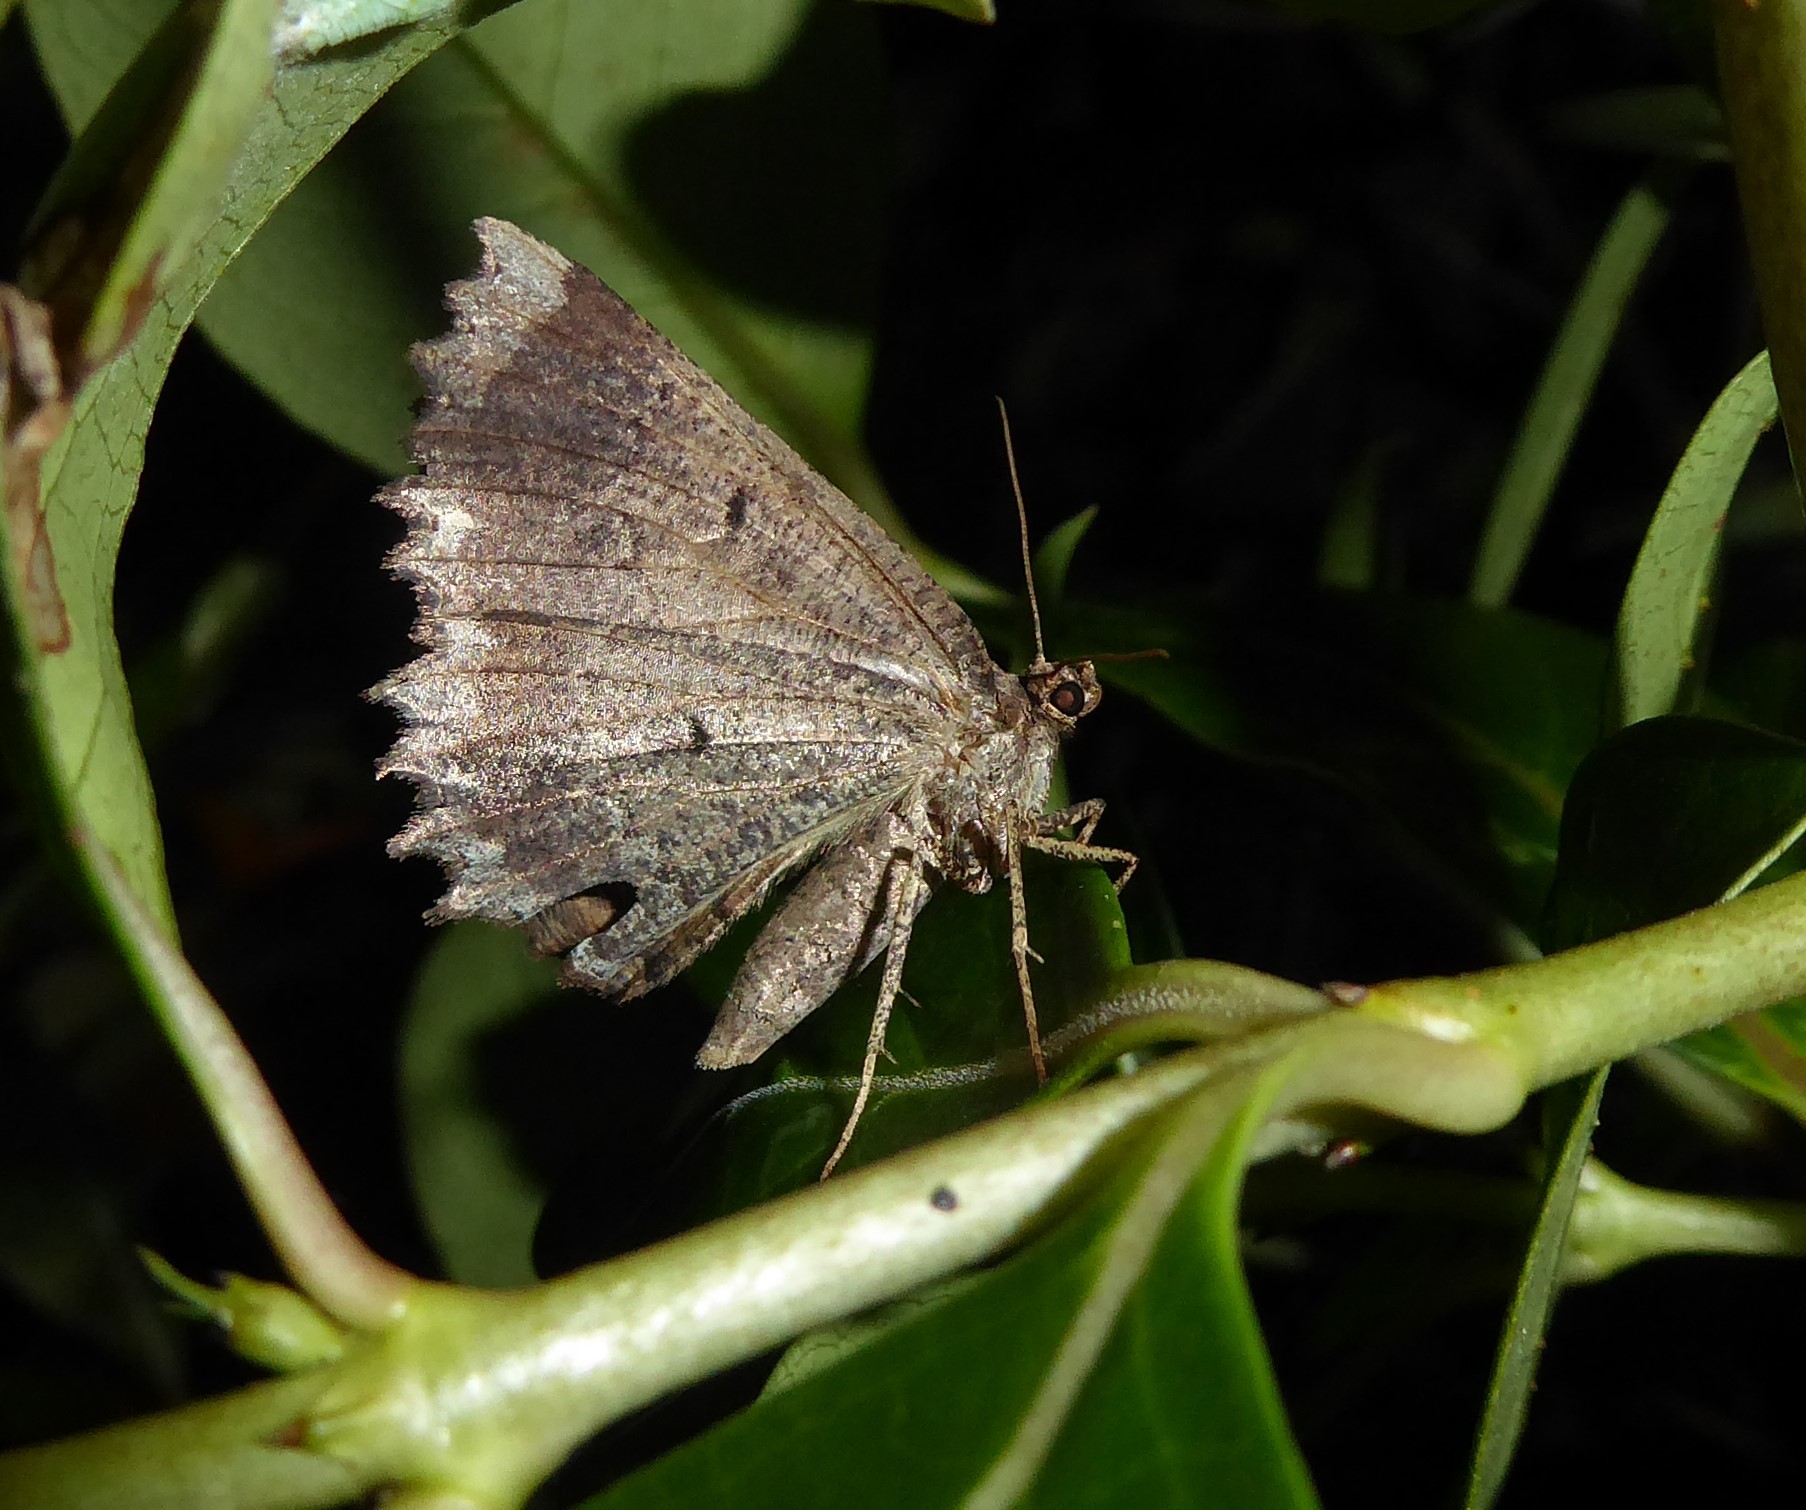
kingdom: Animalia
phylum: Arthropoda
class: Insecta
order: Lepidoptera
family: Geometridae
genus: Gellonia
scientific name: Gellonia pannularia
